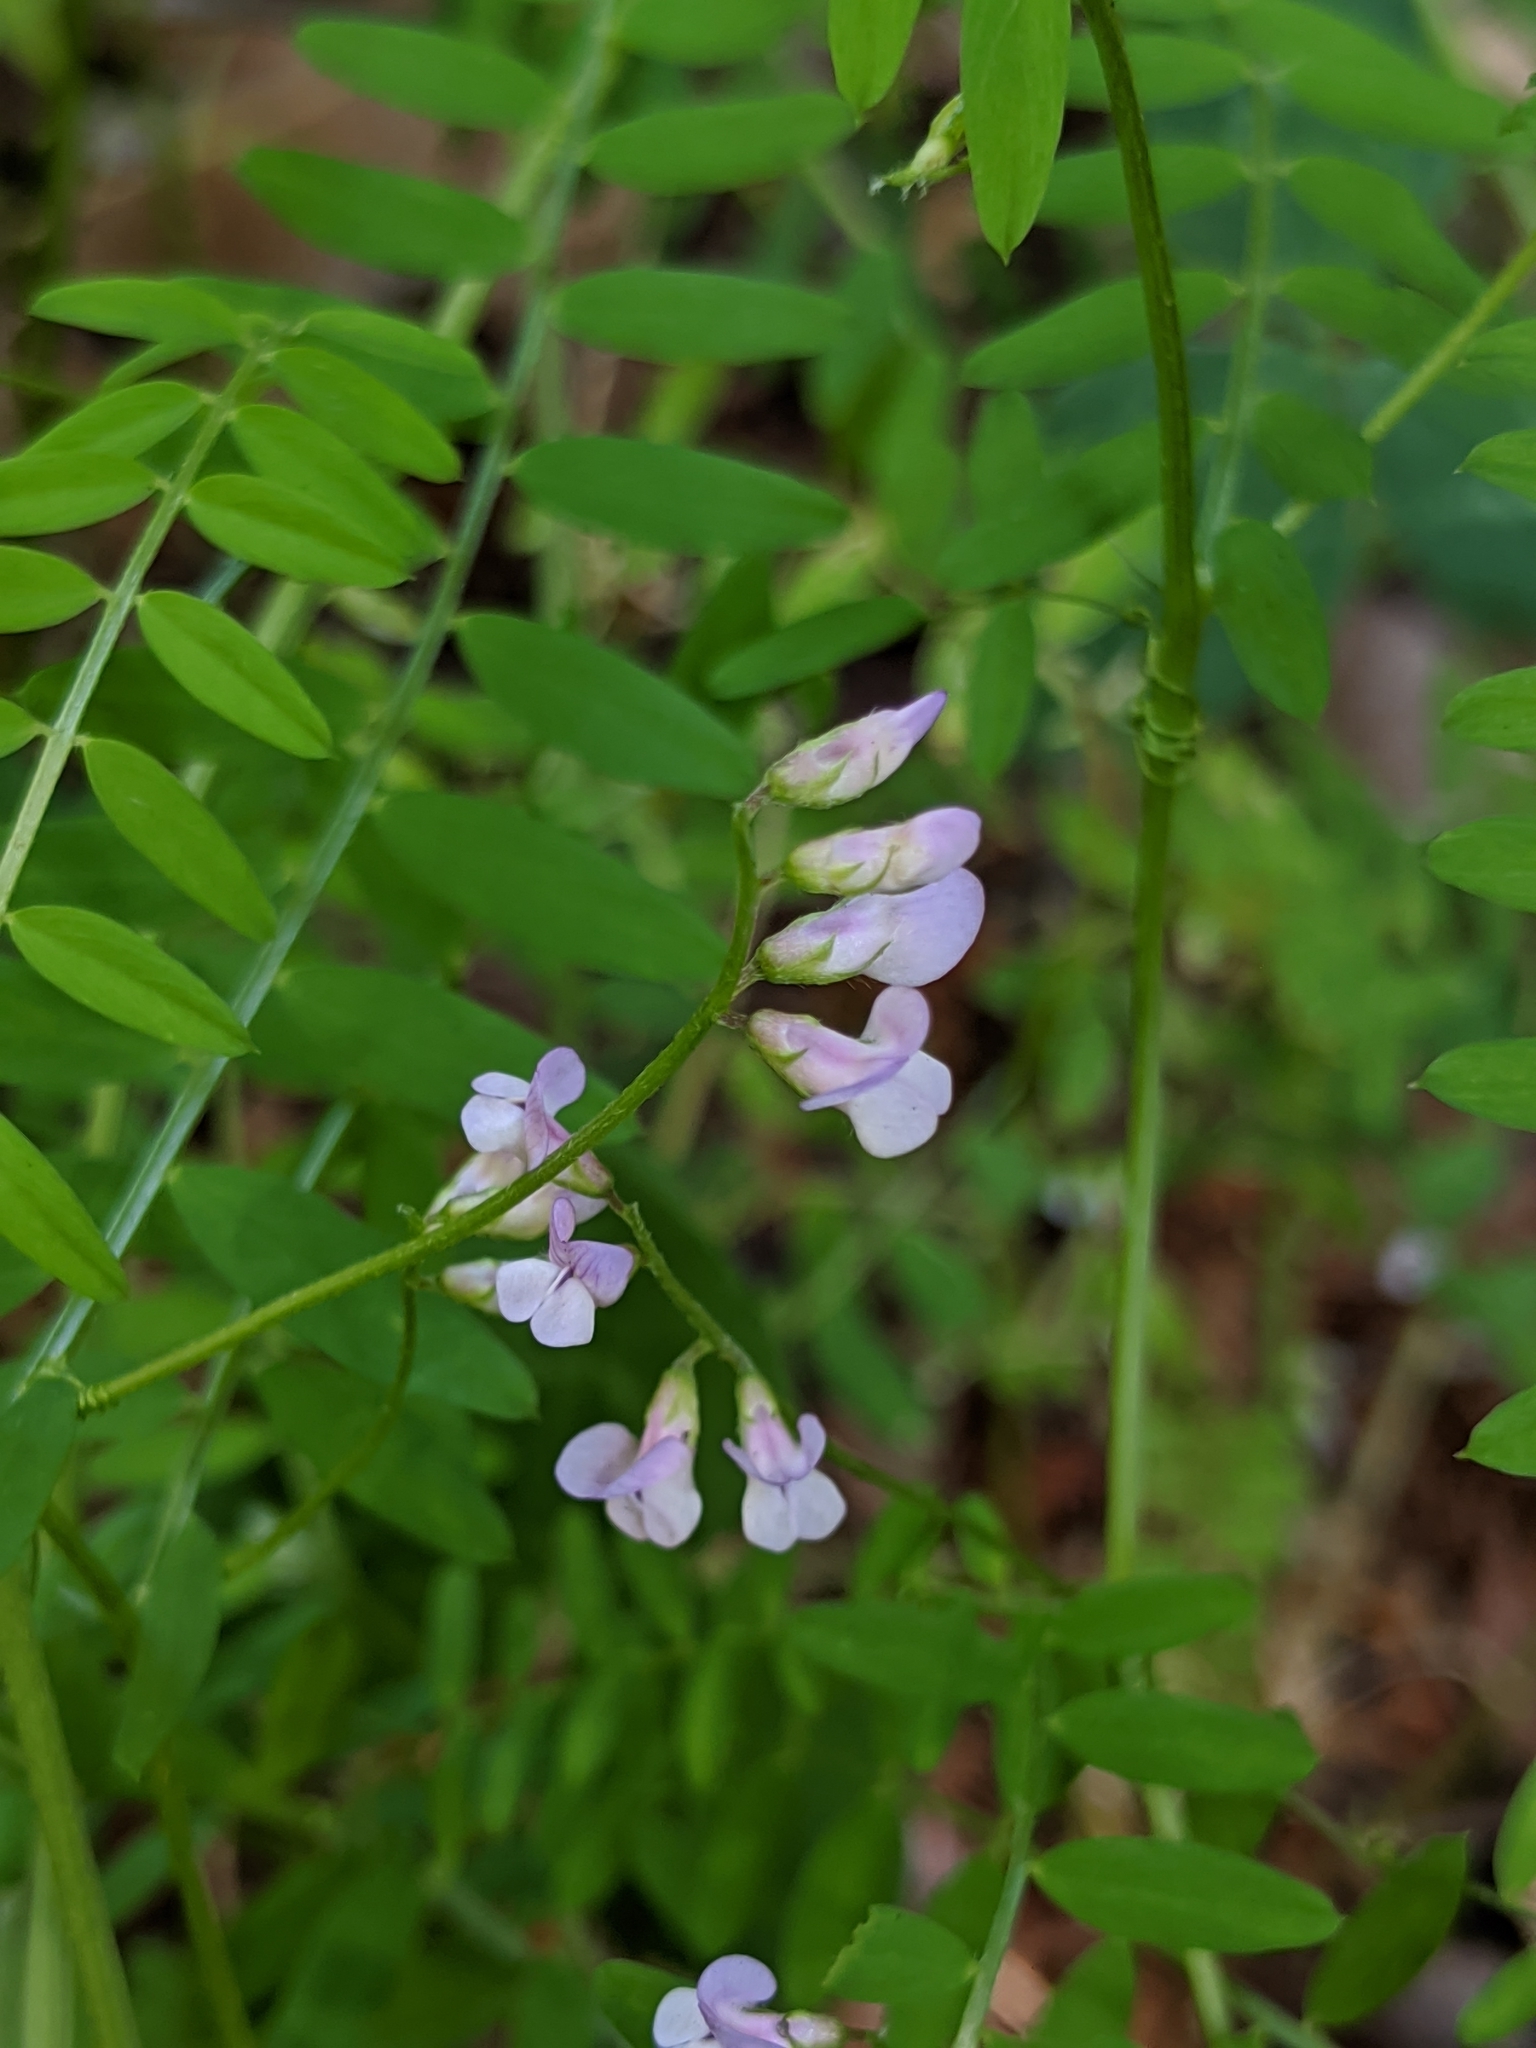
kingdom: Plantae
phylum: Tracheophyta
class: Magnoliopsida
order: Fabales
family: Fabaceae
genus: Vicia
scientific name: Vicia disperma
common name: European vetch
